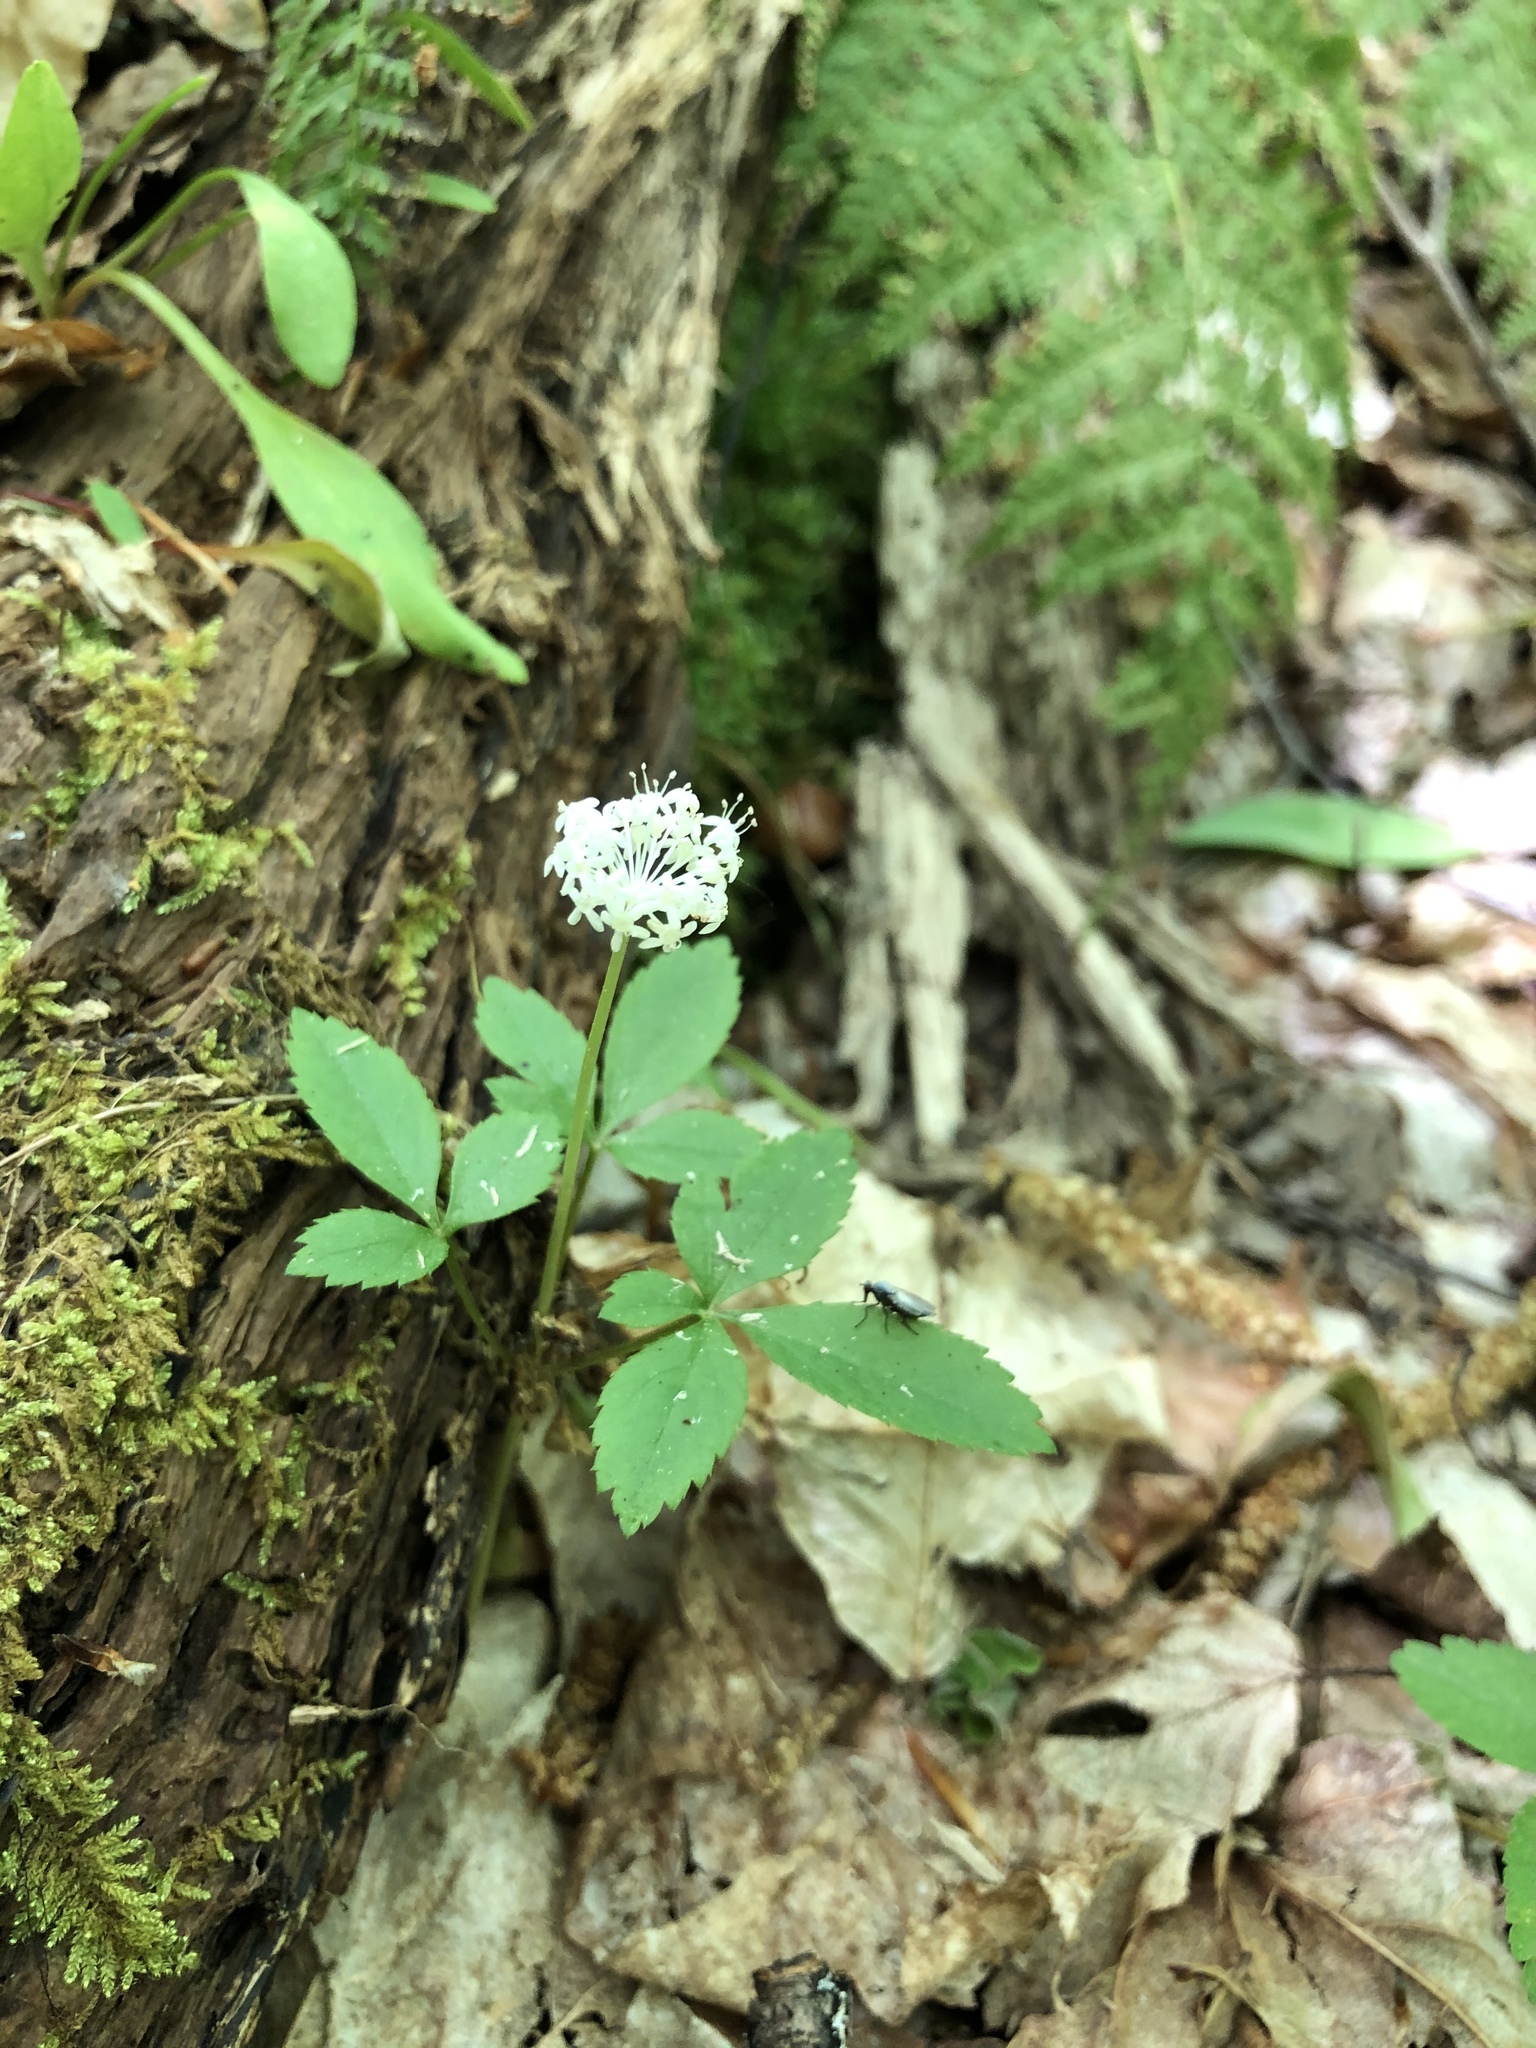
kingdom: Plantae
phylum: Tracheophyta
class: Magnoliopsida
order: Apiales
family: Araliaceae
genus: Panax
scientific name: Panax trifolius
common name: Dwarf ginseng
